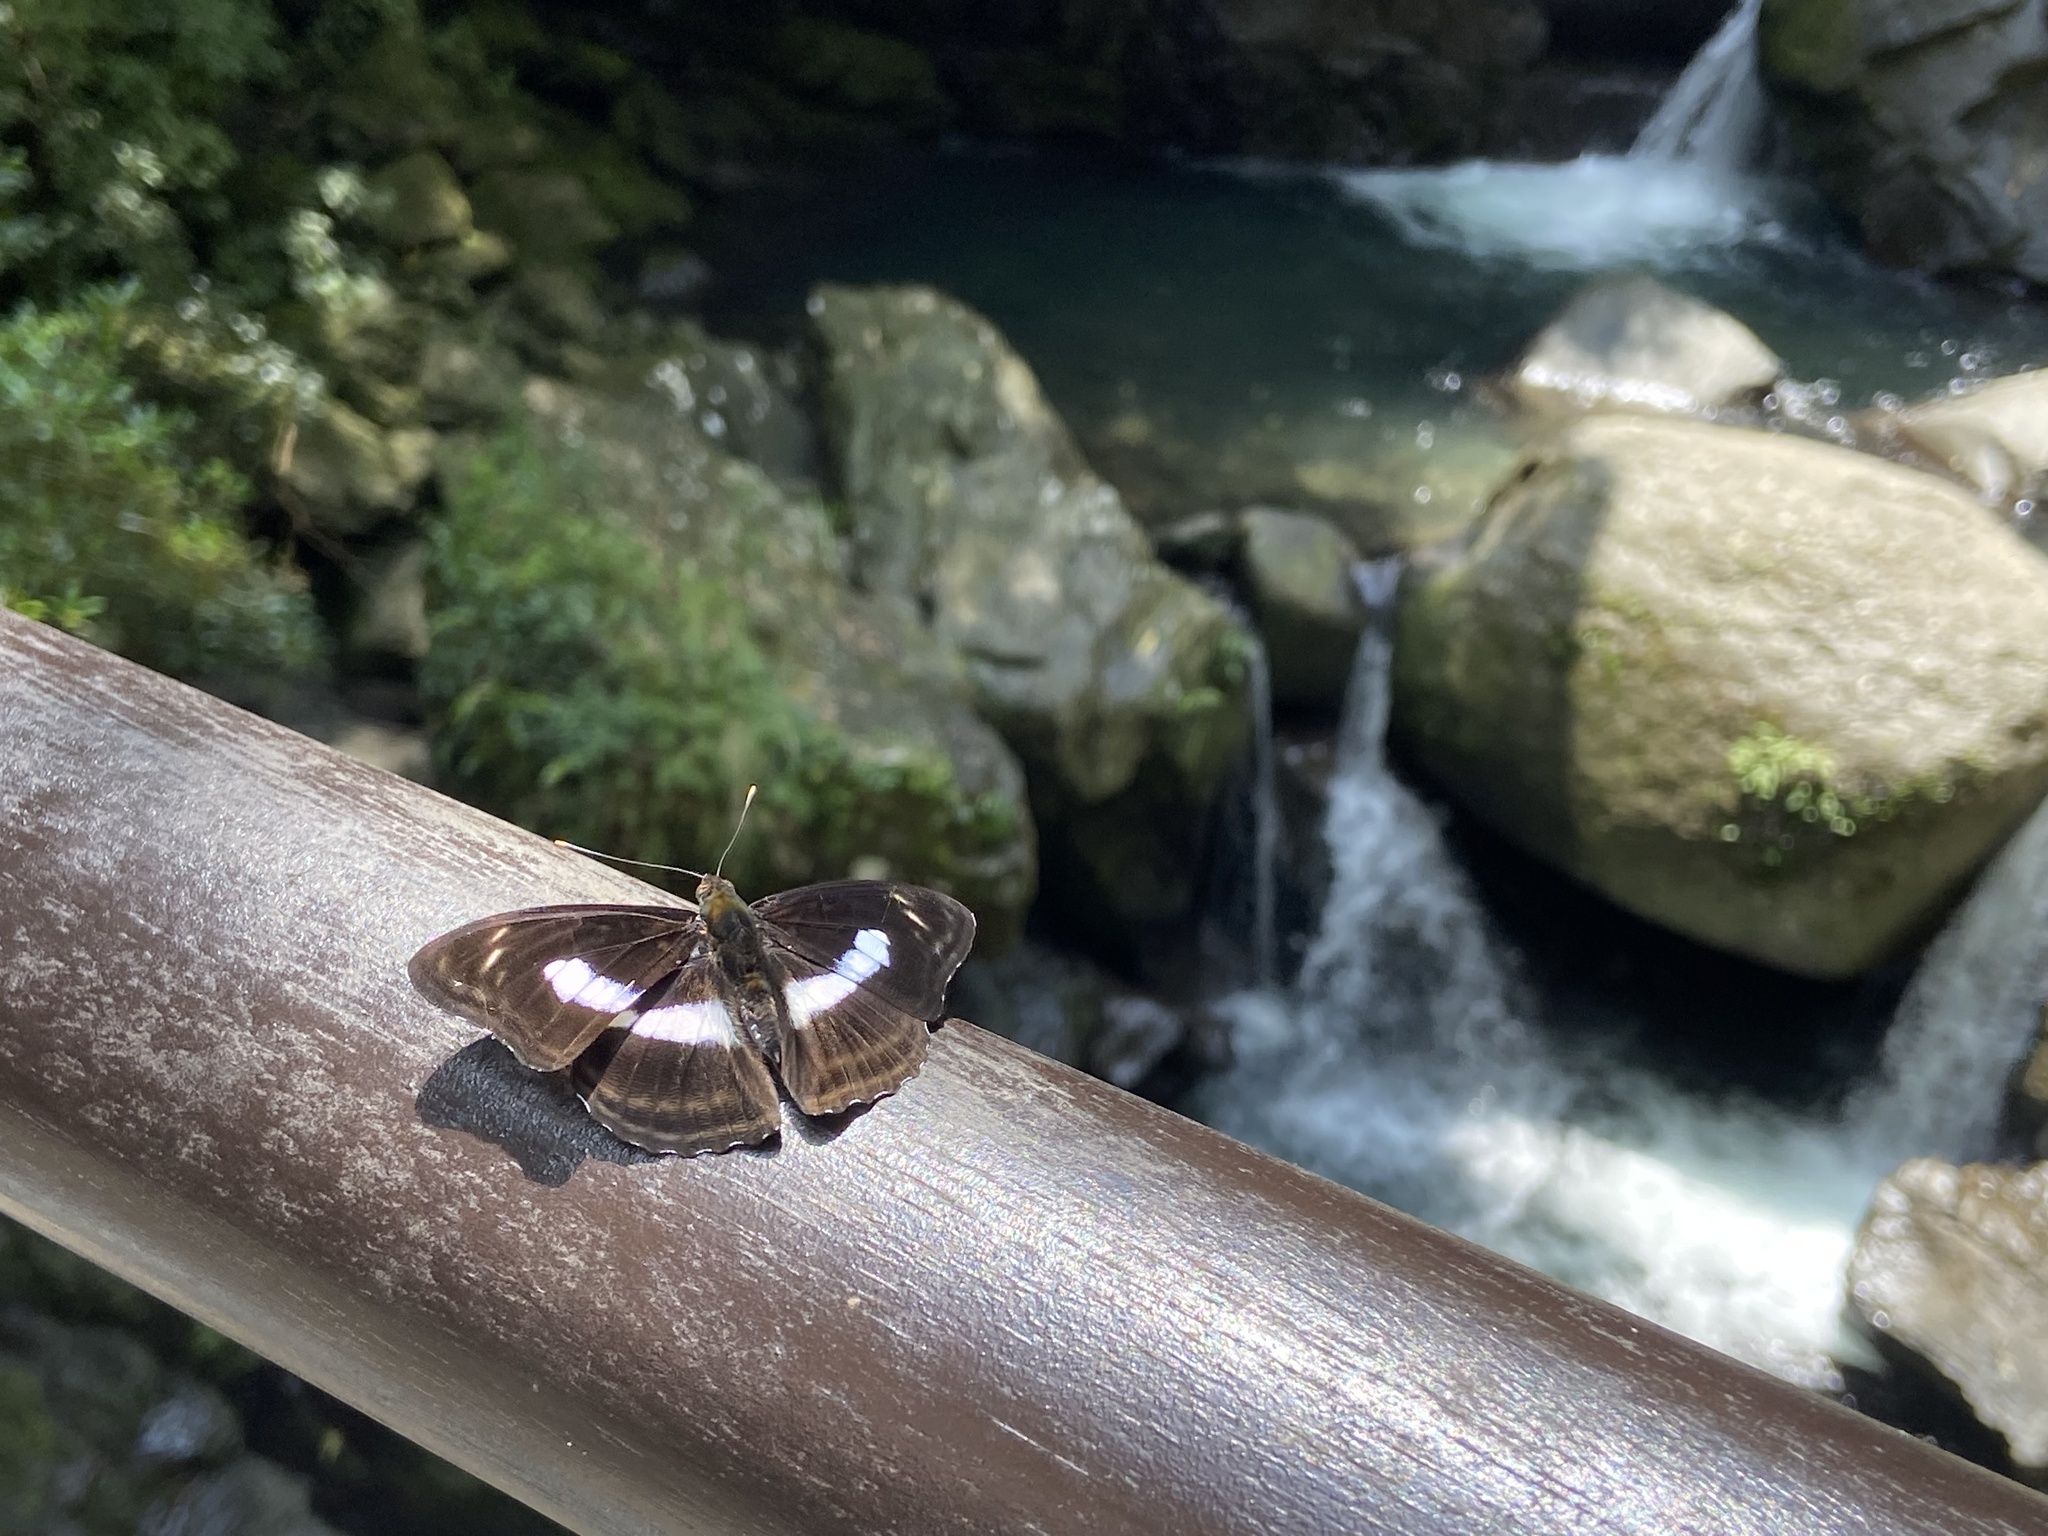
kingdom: Animalia
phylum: Arthropoda
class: Insecta
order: Lepidoptera
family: Nymphalidae
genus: Parathyma
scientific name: Parathyma selenophora
